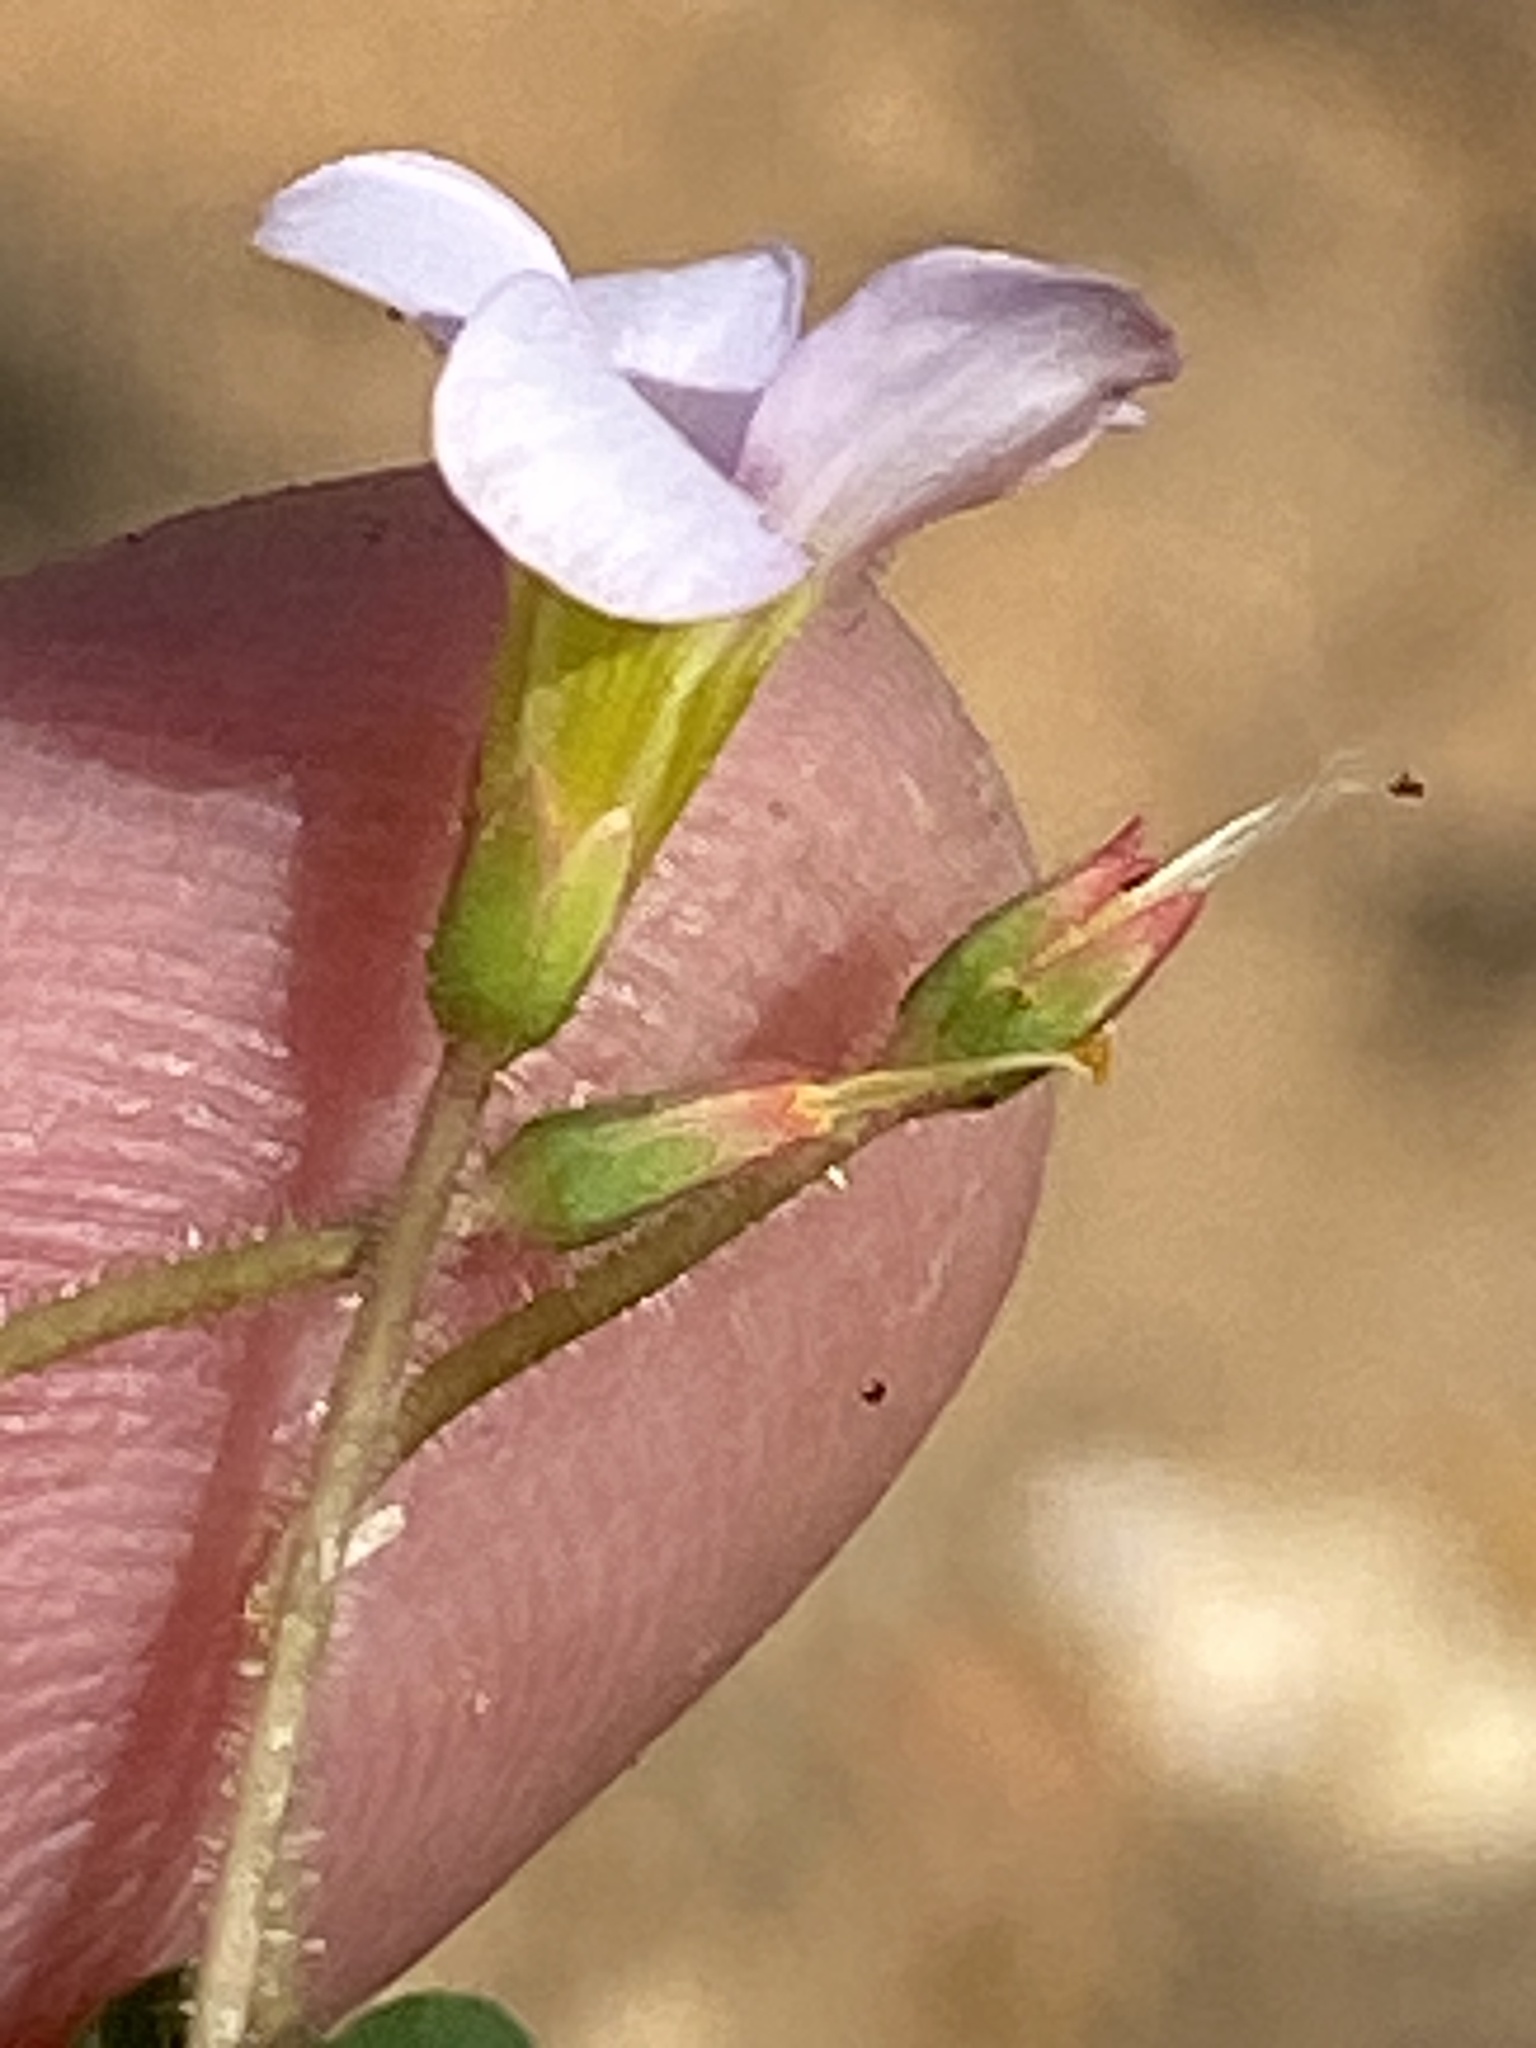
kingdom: Plantae
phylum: Tracheophyta
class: Magnoliopsida
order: Oxalidales
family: Oxalidaceae
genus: Oxalis
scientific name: Oxalis punctata
